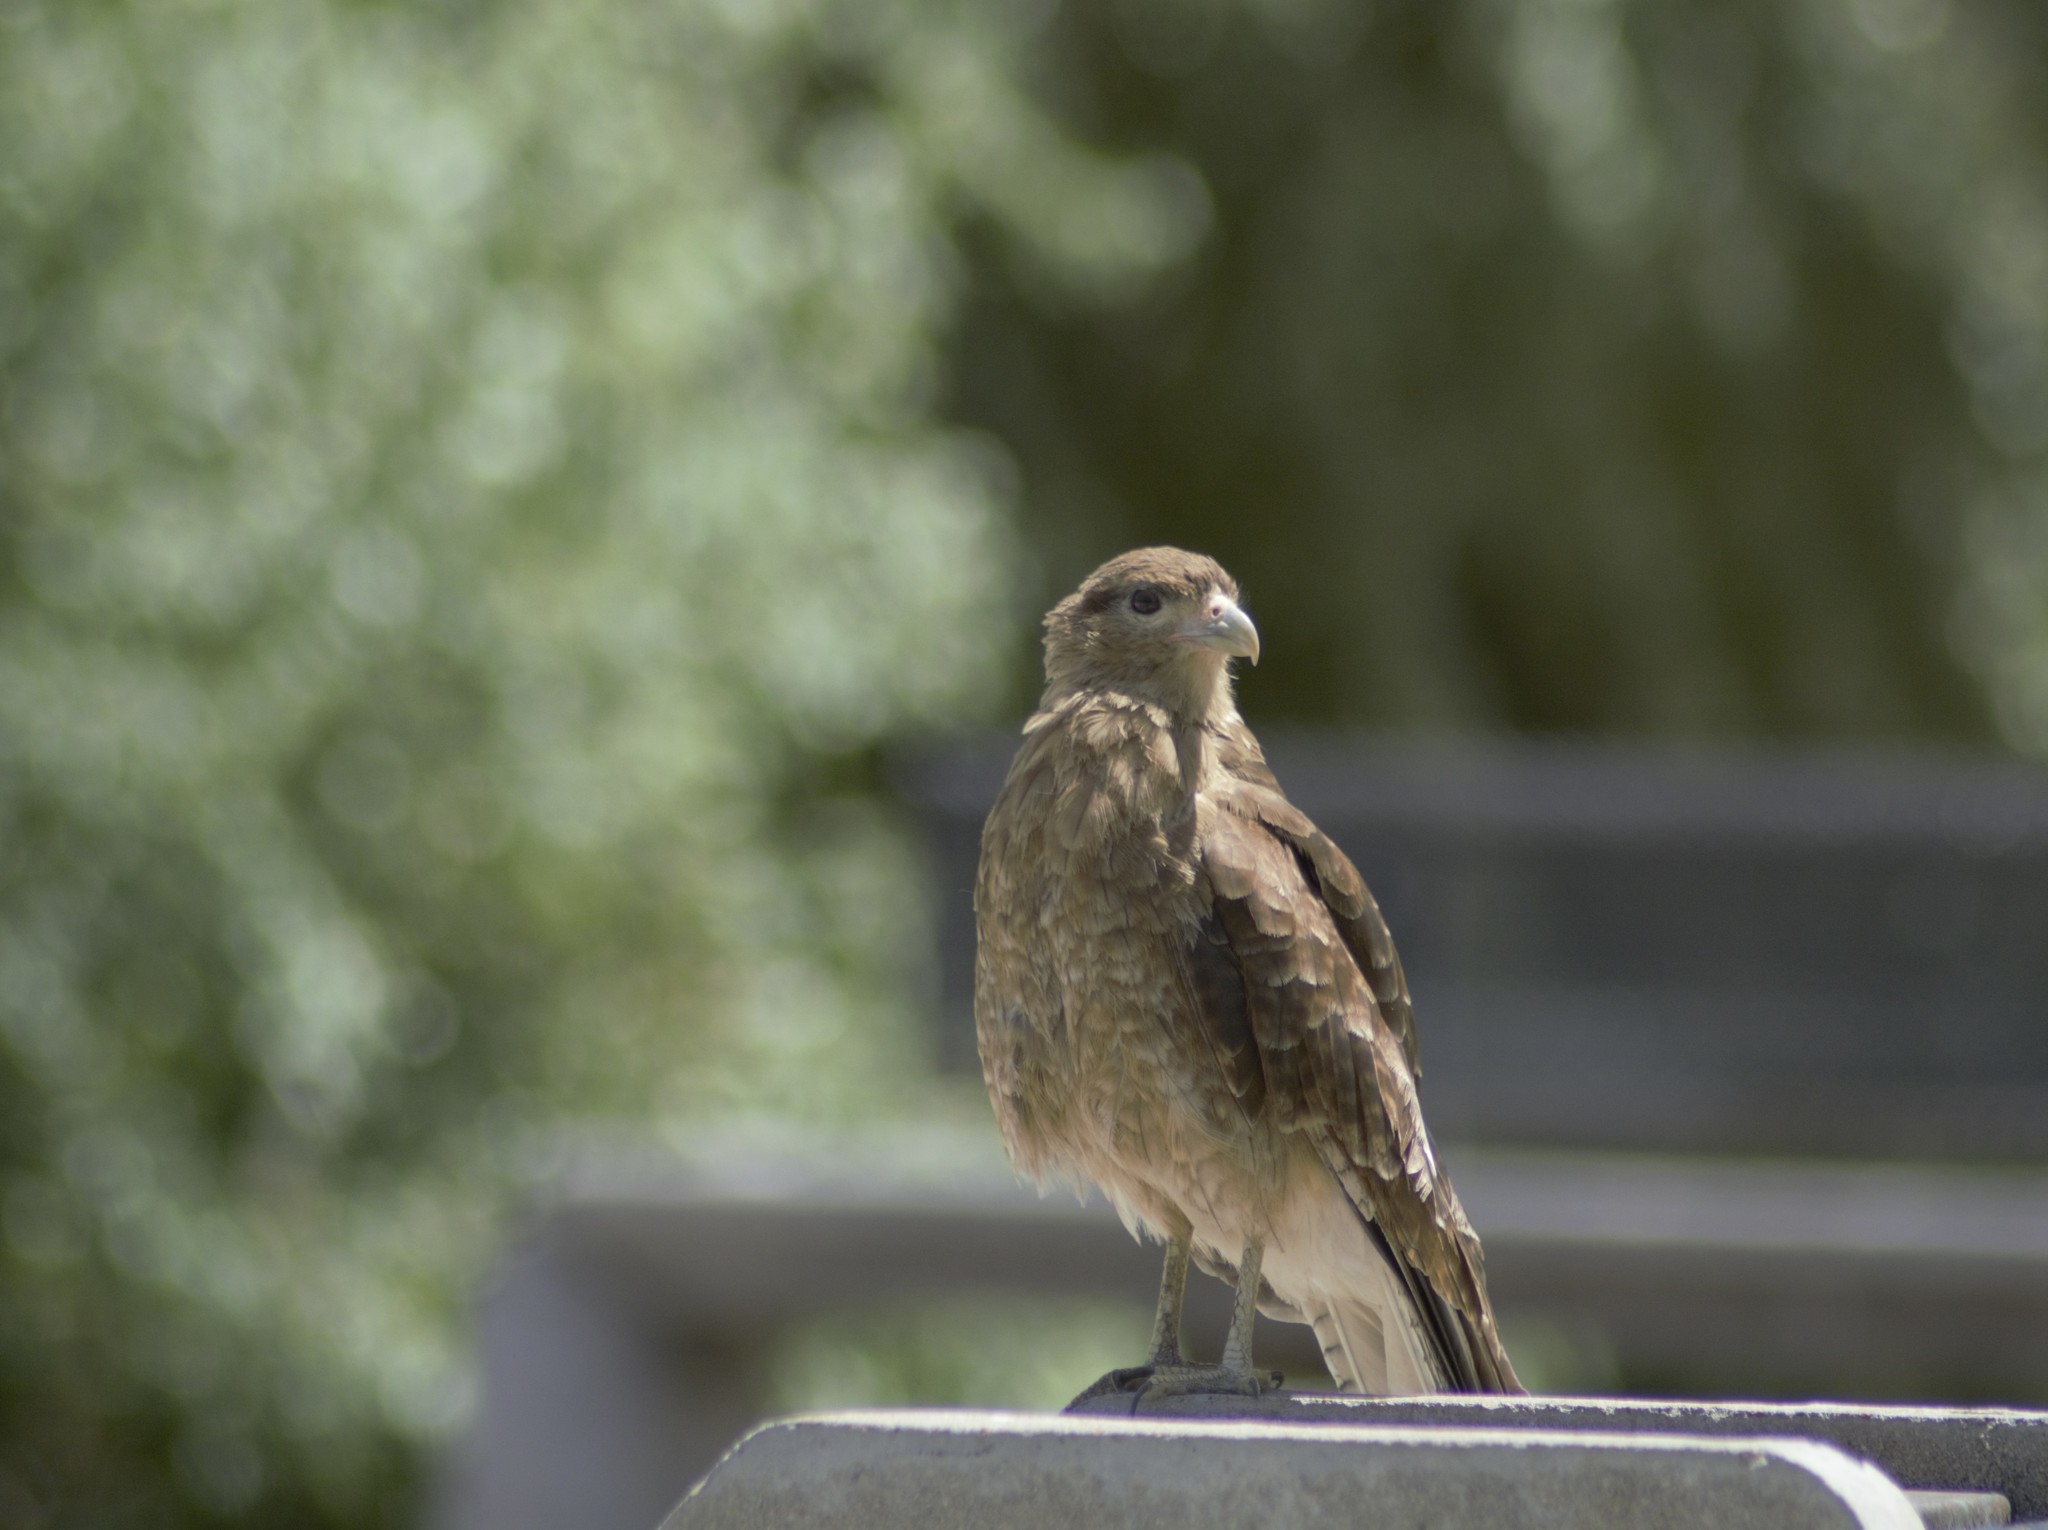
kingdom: Animalia
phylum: Chordata
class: Aves
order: Falconiformes
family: Falconidae
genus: Daptrius
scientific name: Daptrius
